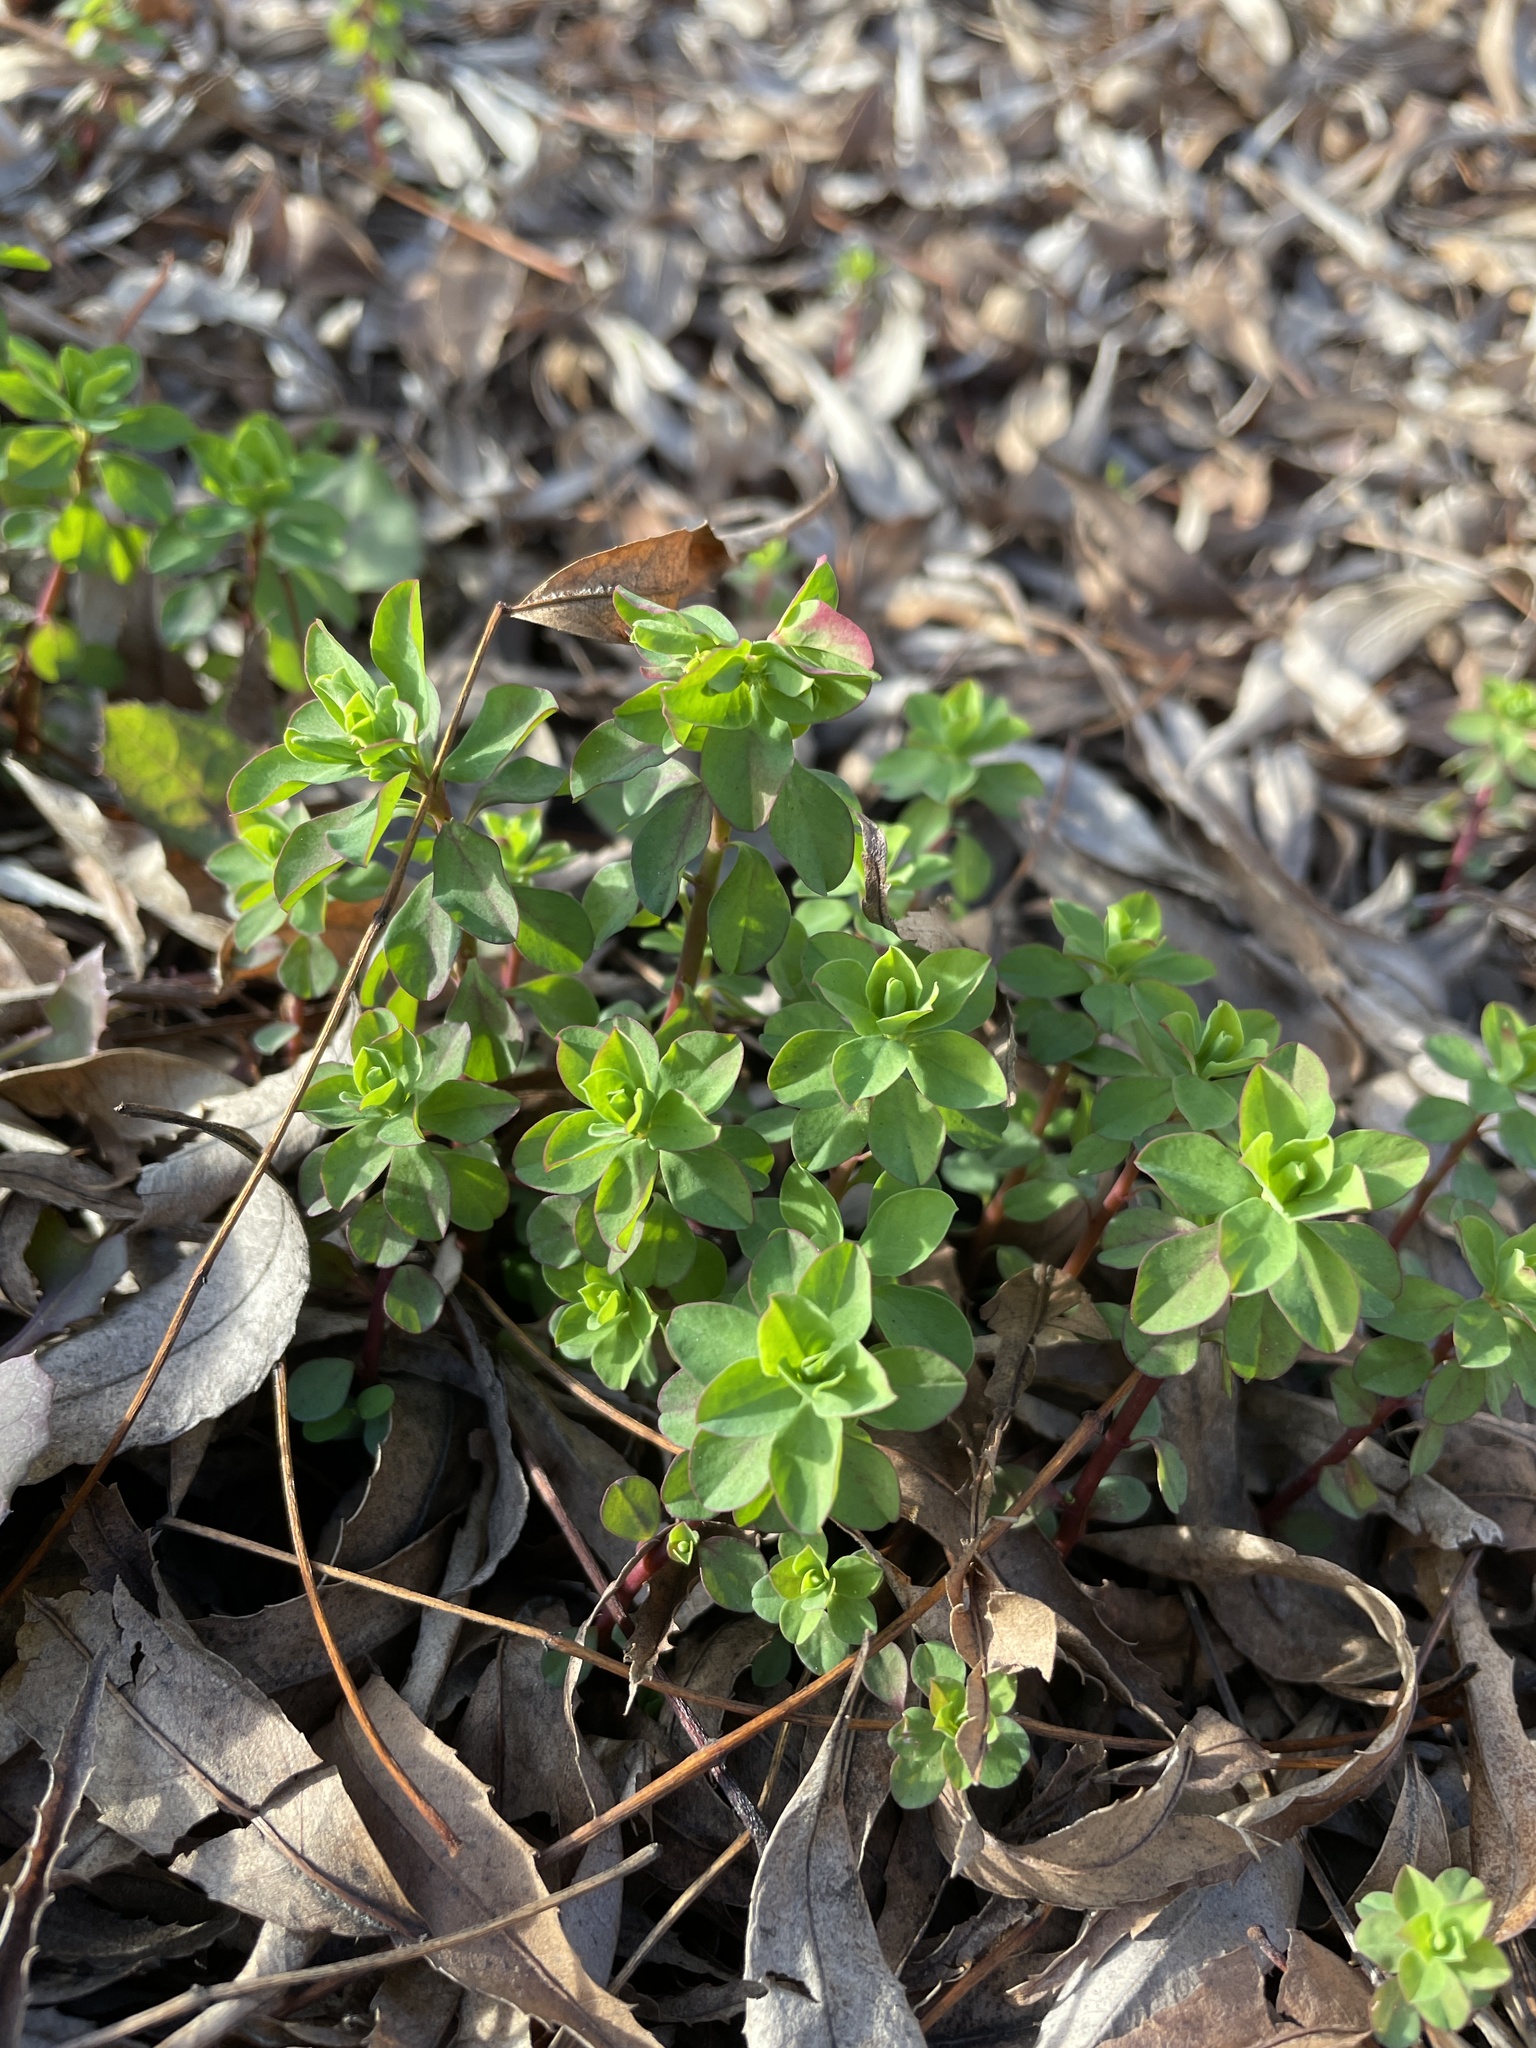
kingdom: Plantae
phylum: Tracheophyta
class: Magnoliopsida
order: Malpighiales
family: Euphorbiaceae
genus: Euphorbia
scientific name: Euphorbia peplus
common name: Petty spurge
